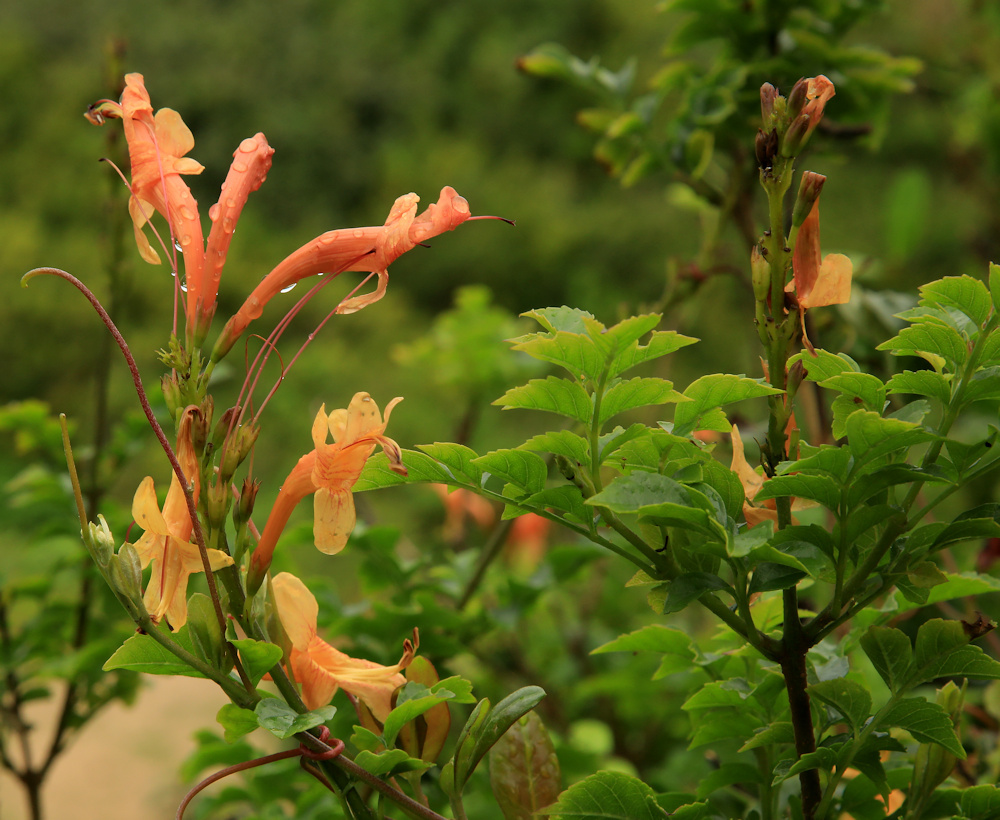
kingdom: Plantae
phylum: Tracheophyta
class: Magnoliopsida
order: Lamiales
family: Bignoniaceae
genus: Tecomaria
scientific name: Tecomaria capensis
